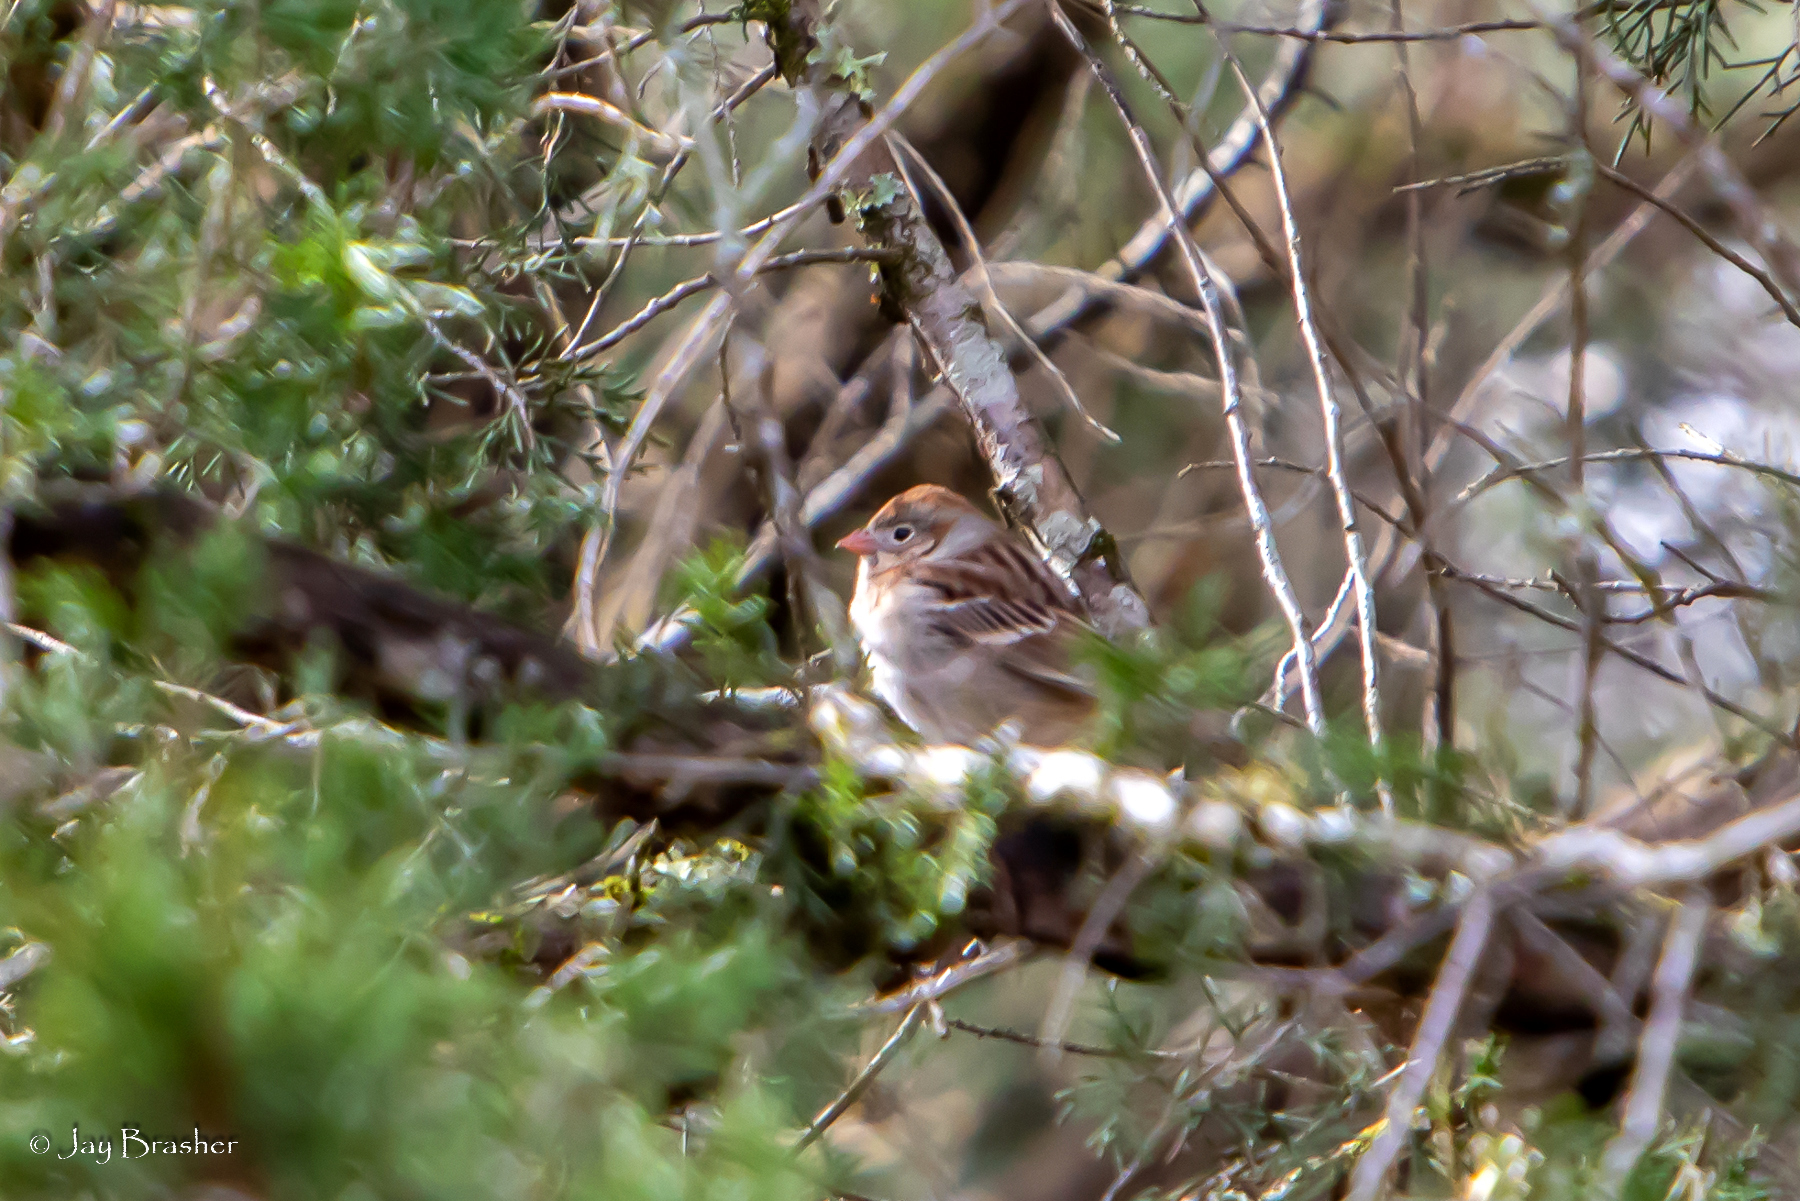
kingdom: Animalia
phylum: Chordata
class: Aves
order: Passeriformes
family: Passerellidae
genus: Spizella
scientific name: Spizella pusilla
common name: Field sparrow
